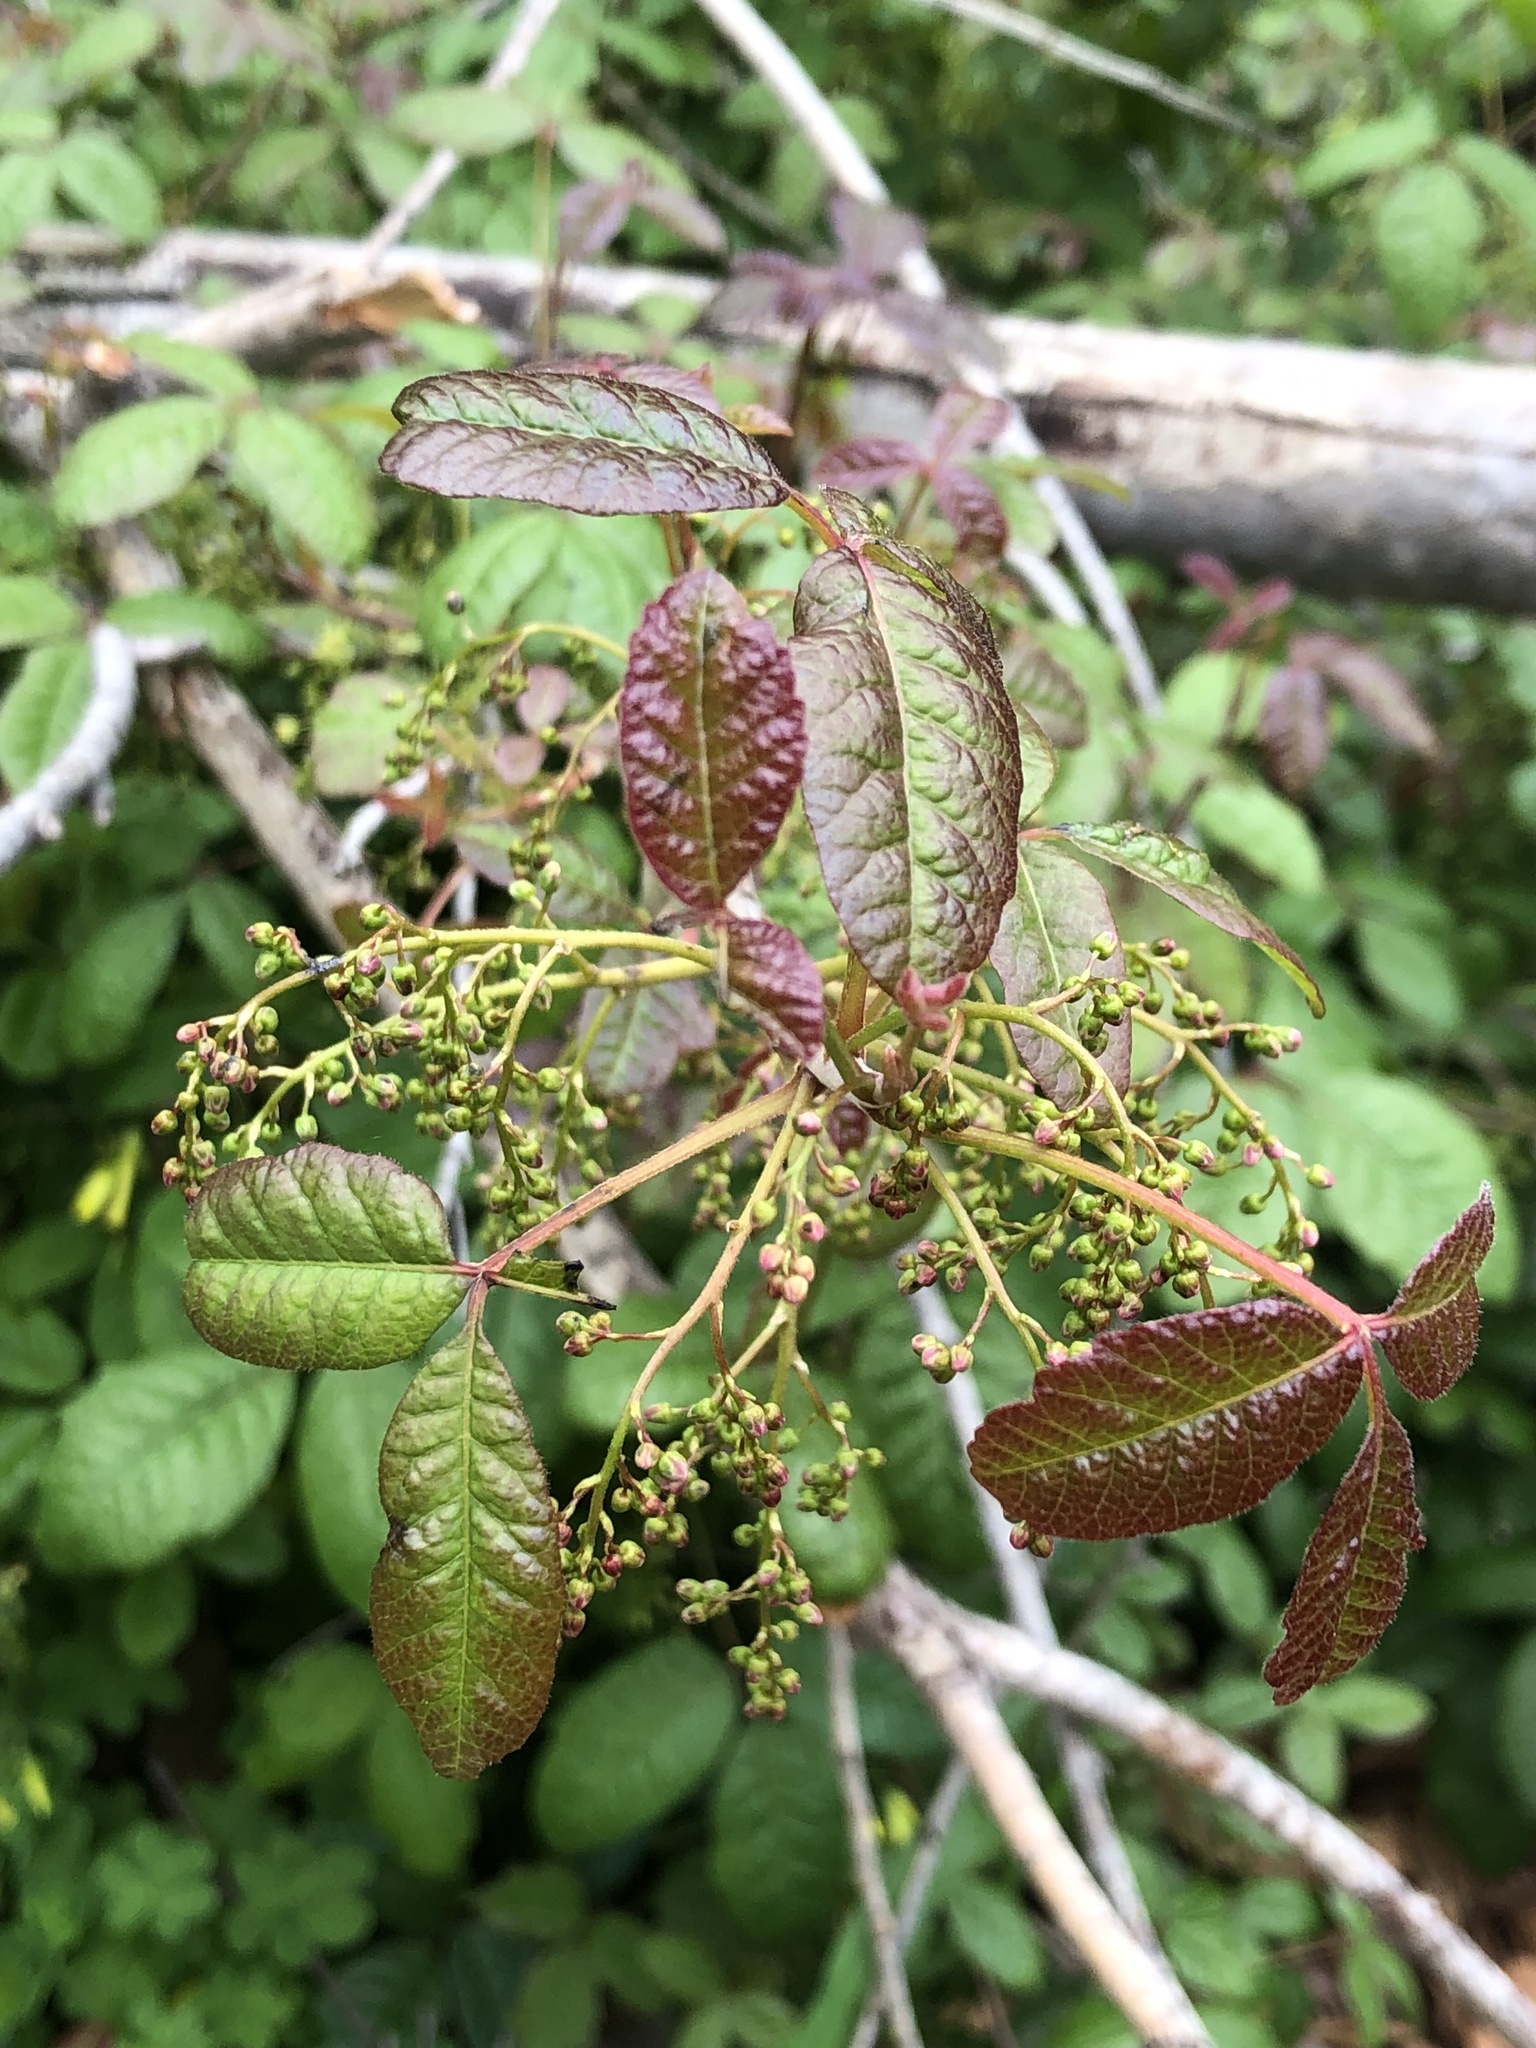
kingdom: Plantae
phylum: Tracheophyta
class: Magnoliopsida
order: Sapindales
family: Anacardiaceae
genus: Toxicodendron
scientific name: Toxicodendron diversilobum
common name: Pacific poison-oak
